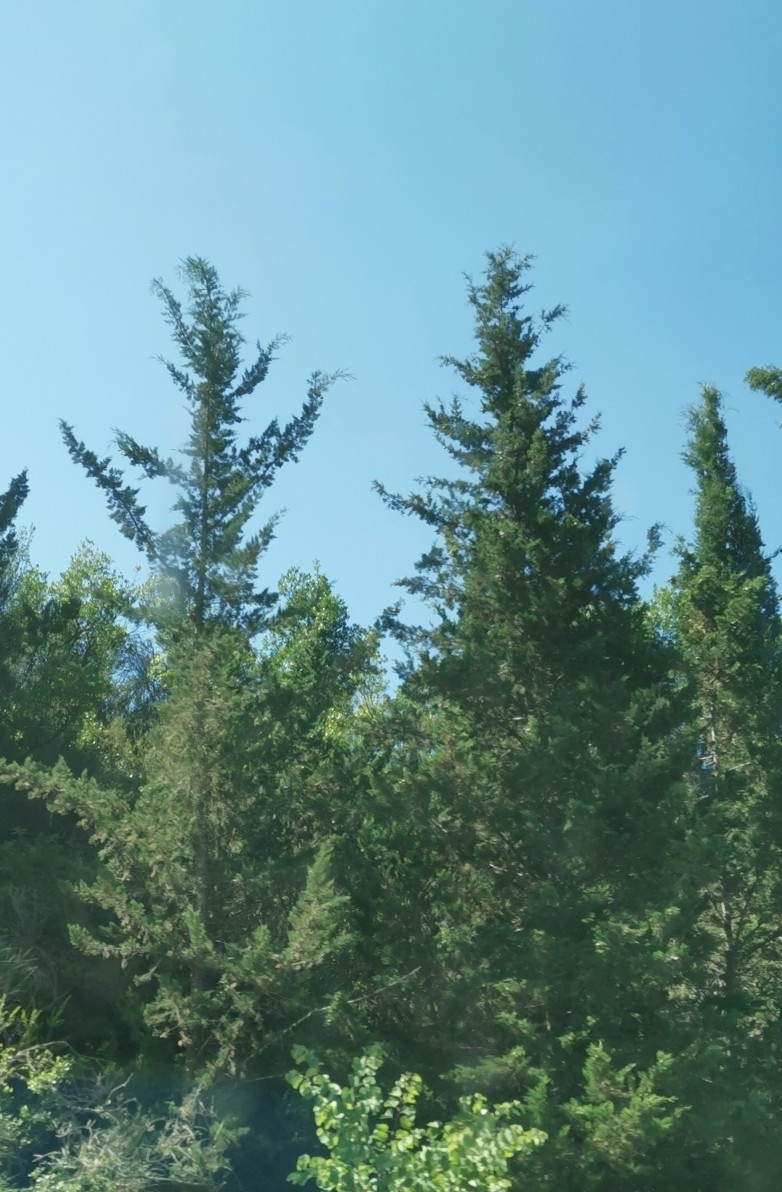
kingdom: Plantae
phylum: Tracheophyta
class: Pinopsida
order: Pinales
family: Cupressaceae
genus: Cupressus
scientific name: Cupressus sempervirens
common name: Italian cypress
